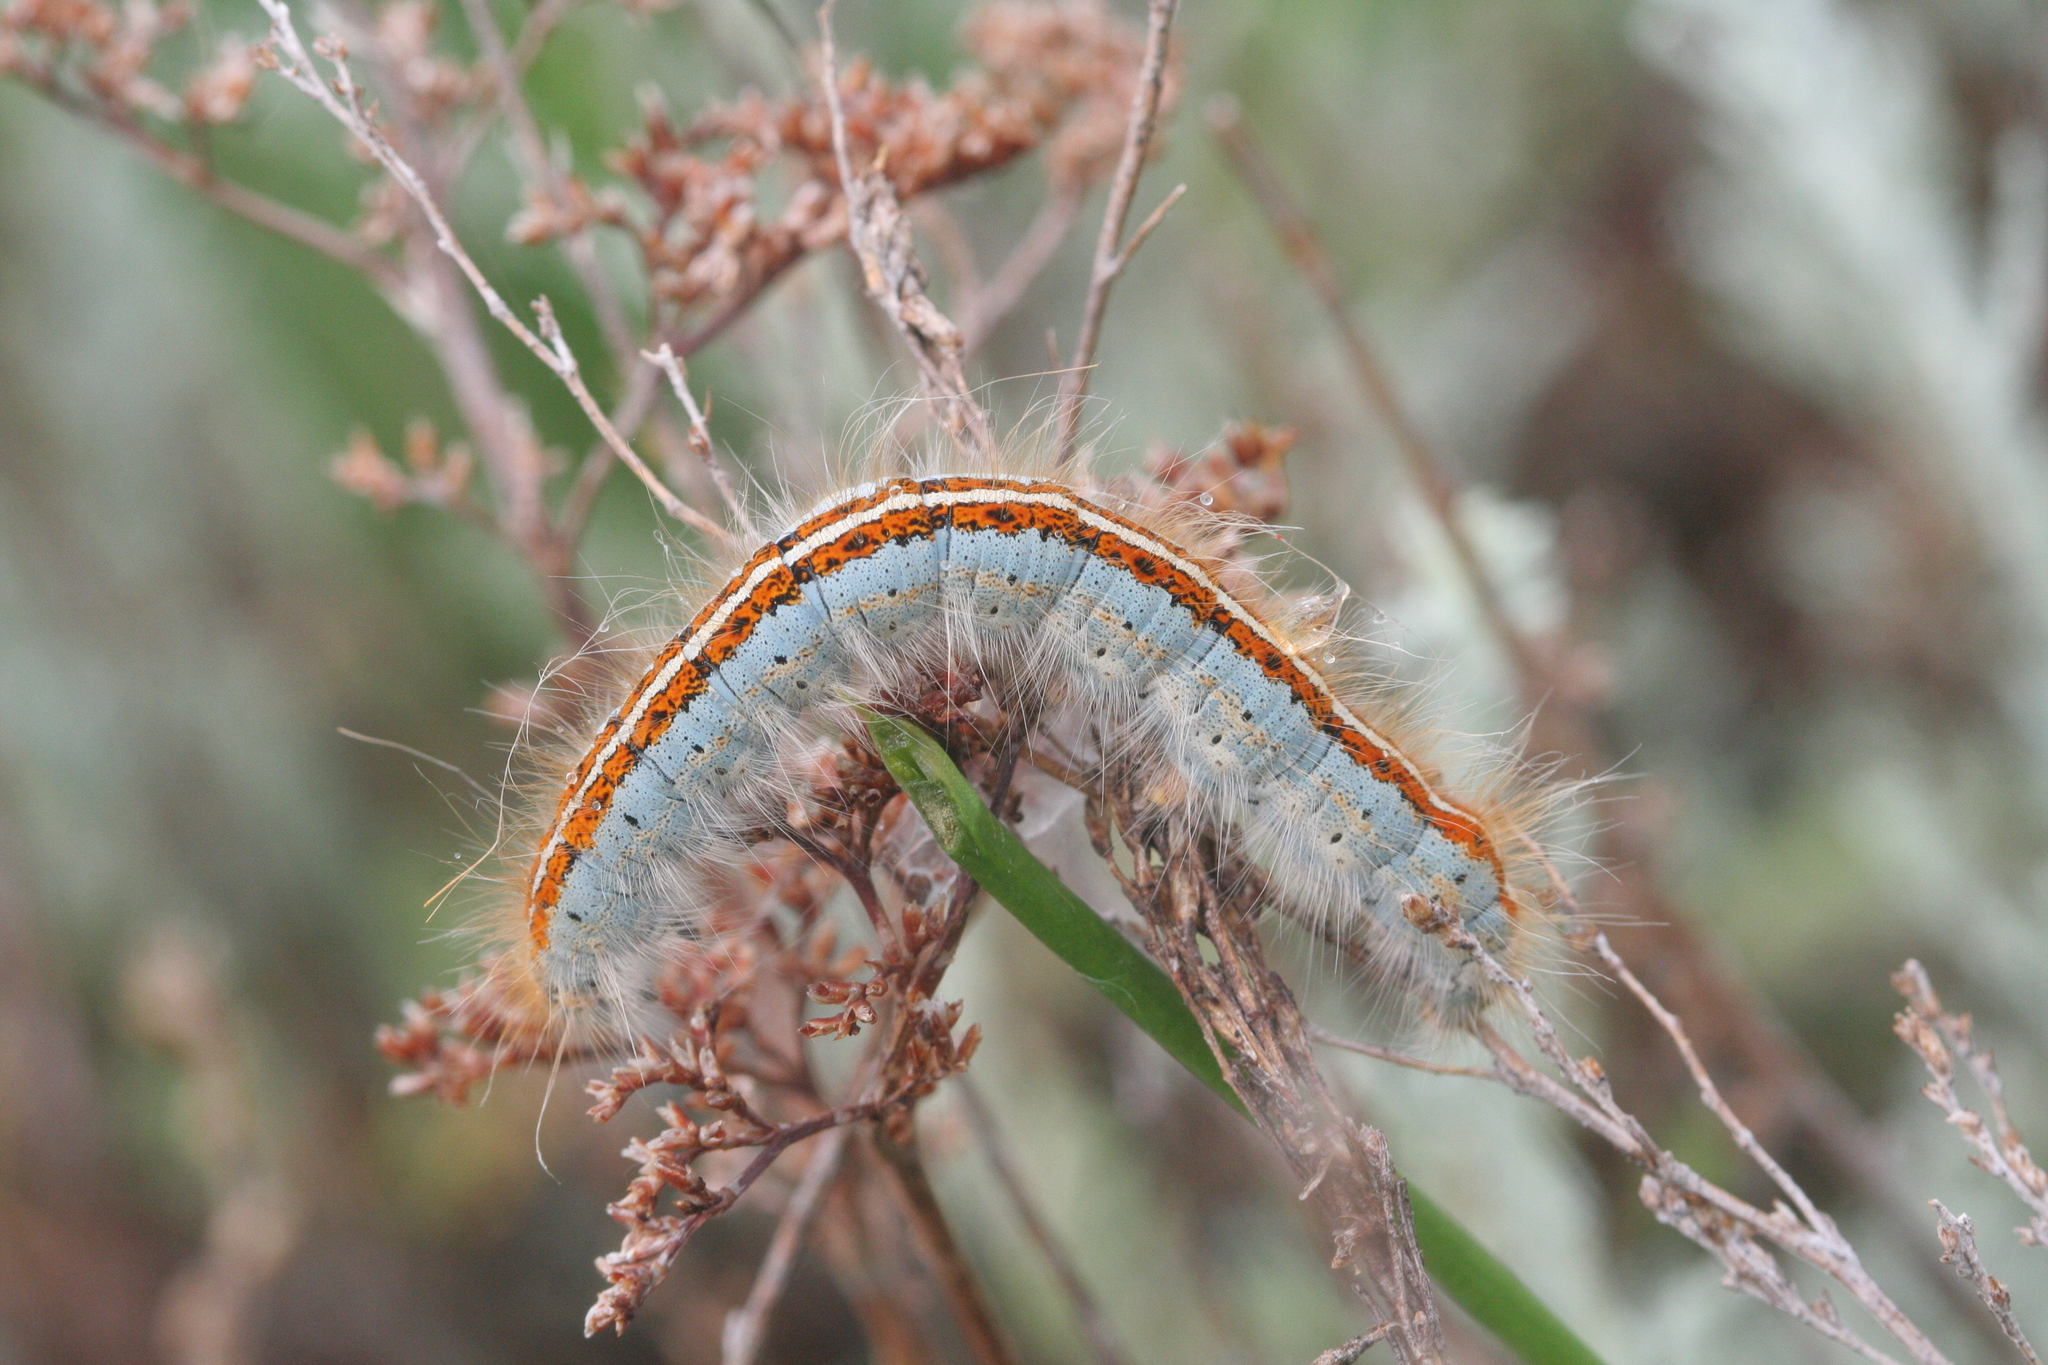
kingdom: Animalia
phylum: Arthropoda
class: Insecta
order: Lepidoptera
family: Lasiocampidae
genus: Malacosoma
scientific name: Malacosoma castrense
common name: Ground lackey
